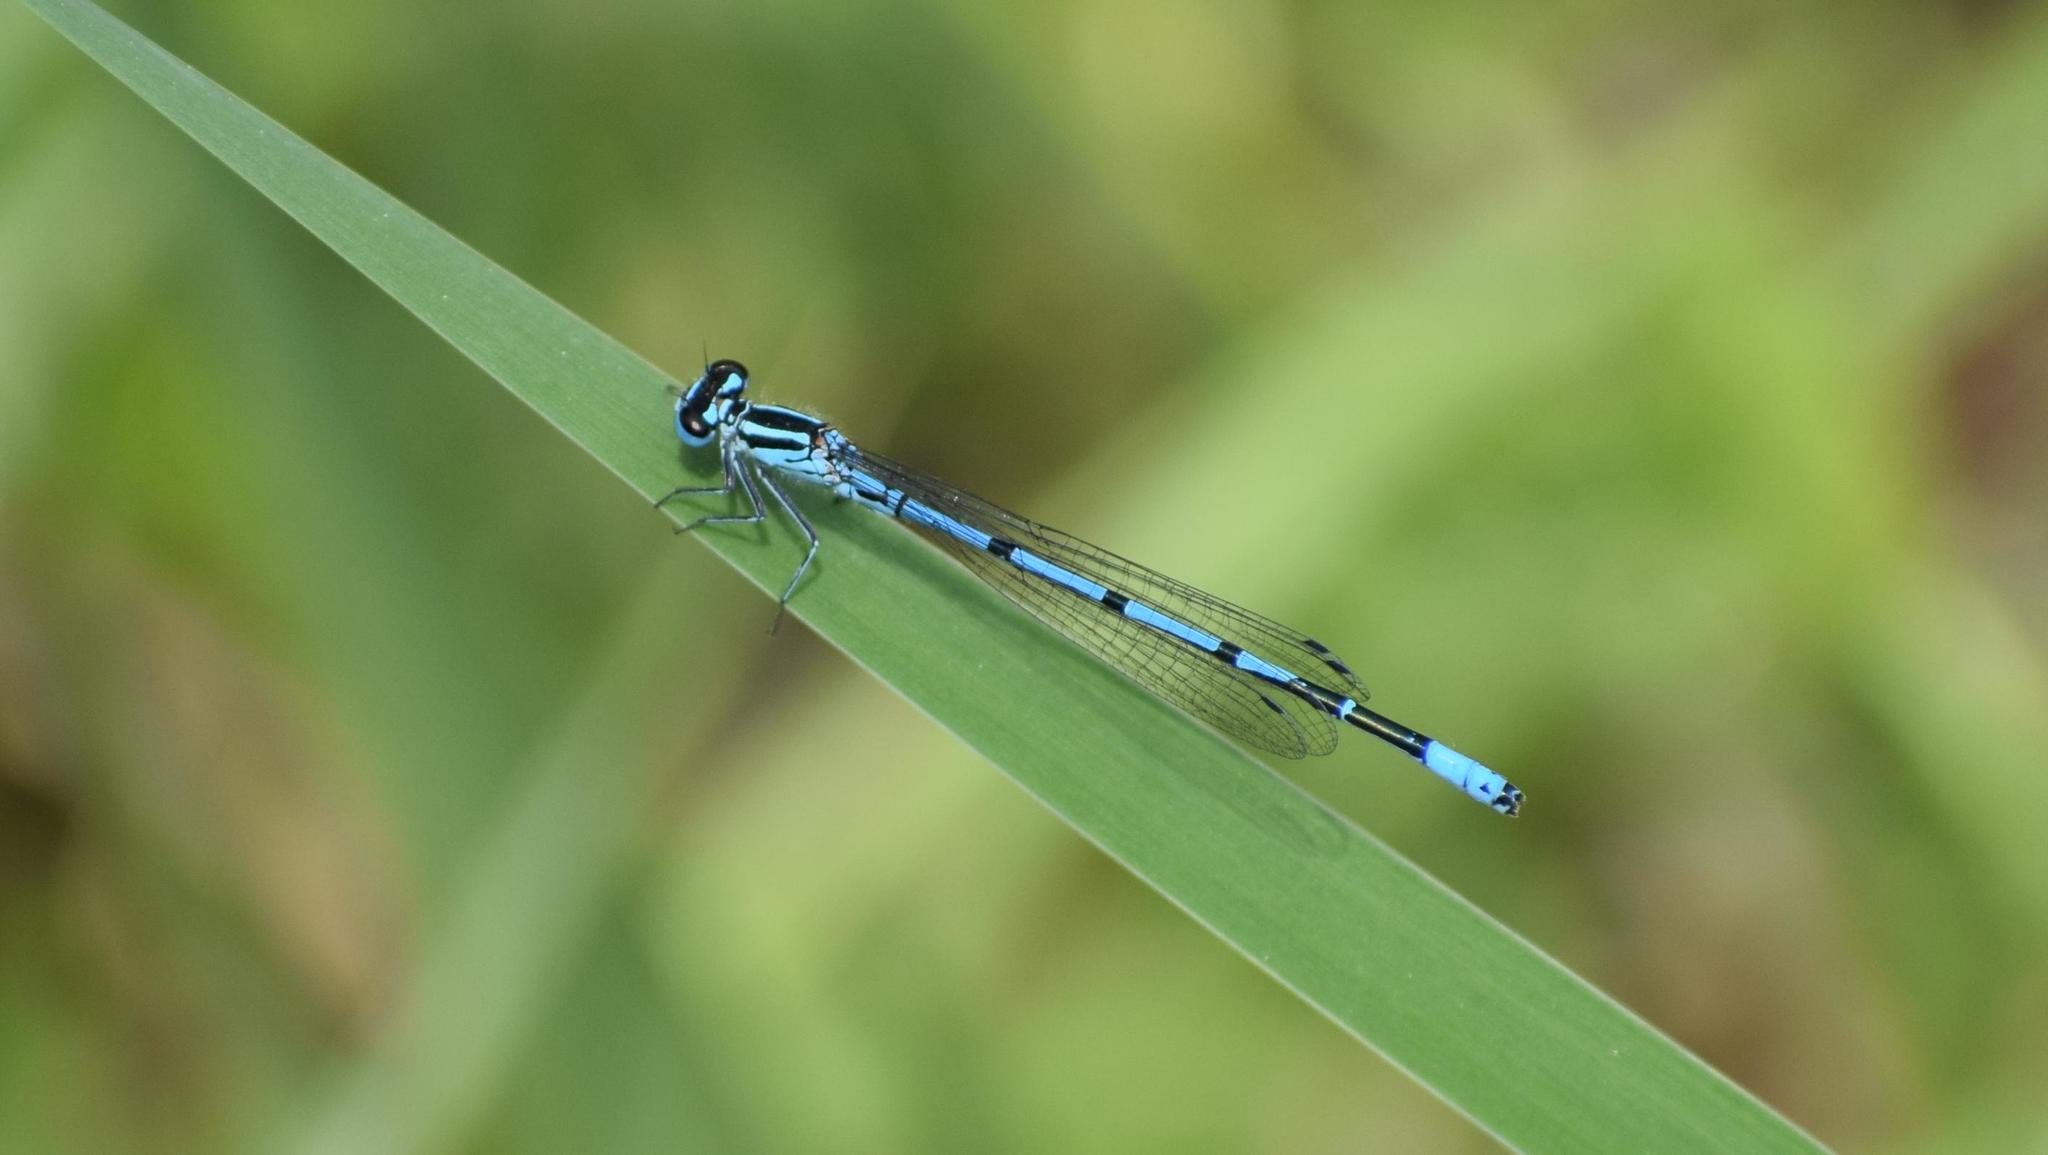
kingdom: Animalia
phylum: Arthropoda
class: Insecta
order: Odonata
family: Coenagrionidae
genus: Coenagrion
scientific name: Coenagrion puella
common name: Azure damselfly
